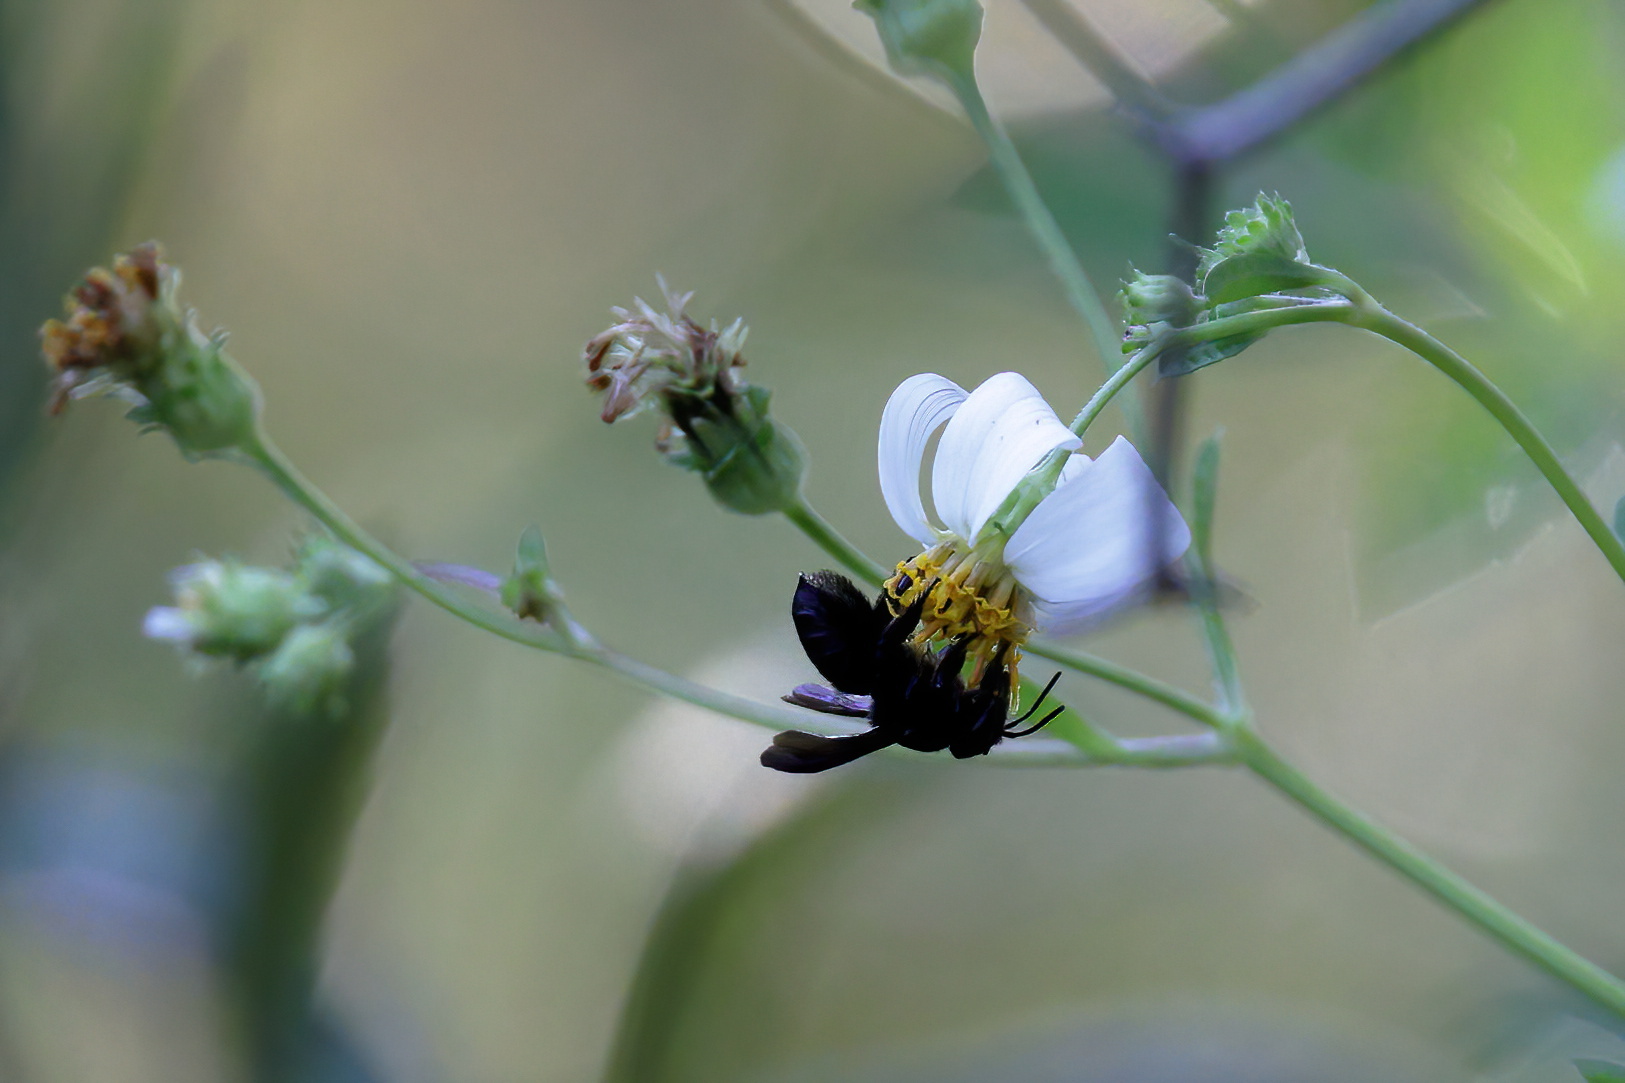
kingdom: Animalia
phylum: Arthropoda
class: Insecta
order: Hymenoptera
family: Megachilidae
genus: Megachile
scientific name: Megachile xylocopoides
